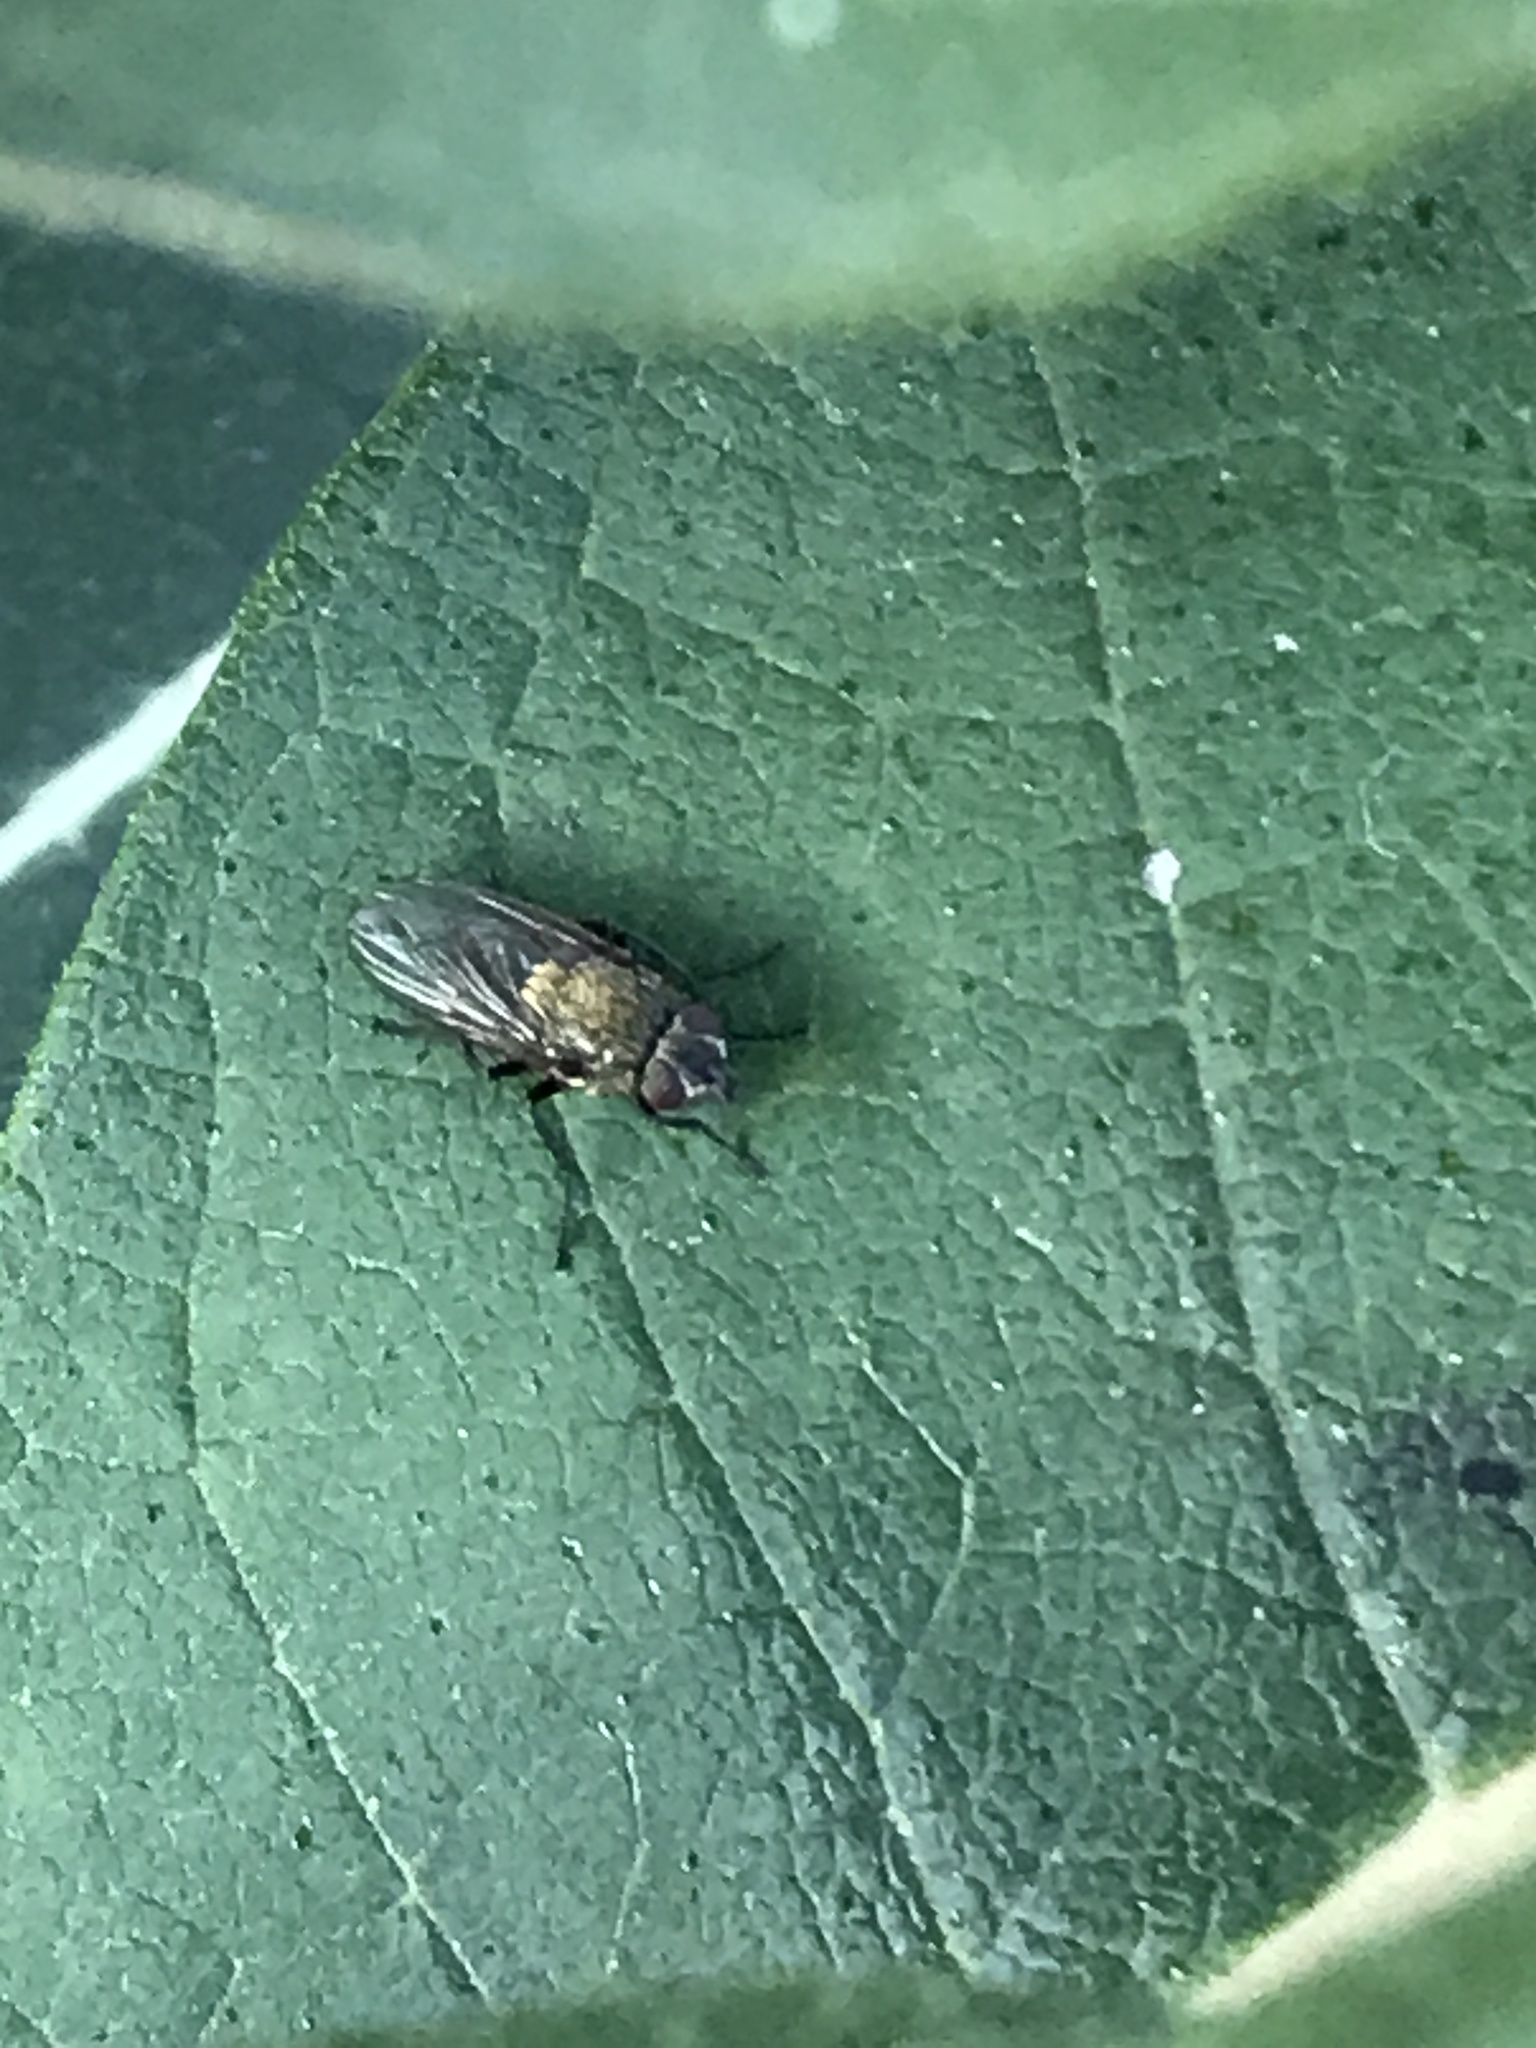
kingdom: Animalia
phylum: Arthropoda
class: Insecta
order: Diptera
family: Polleniidae
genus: Pollenia
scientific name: Pollenia
